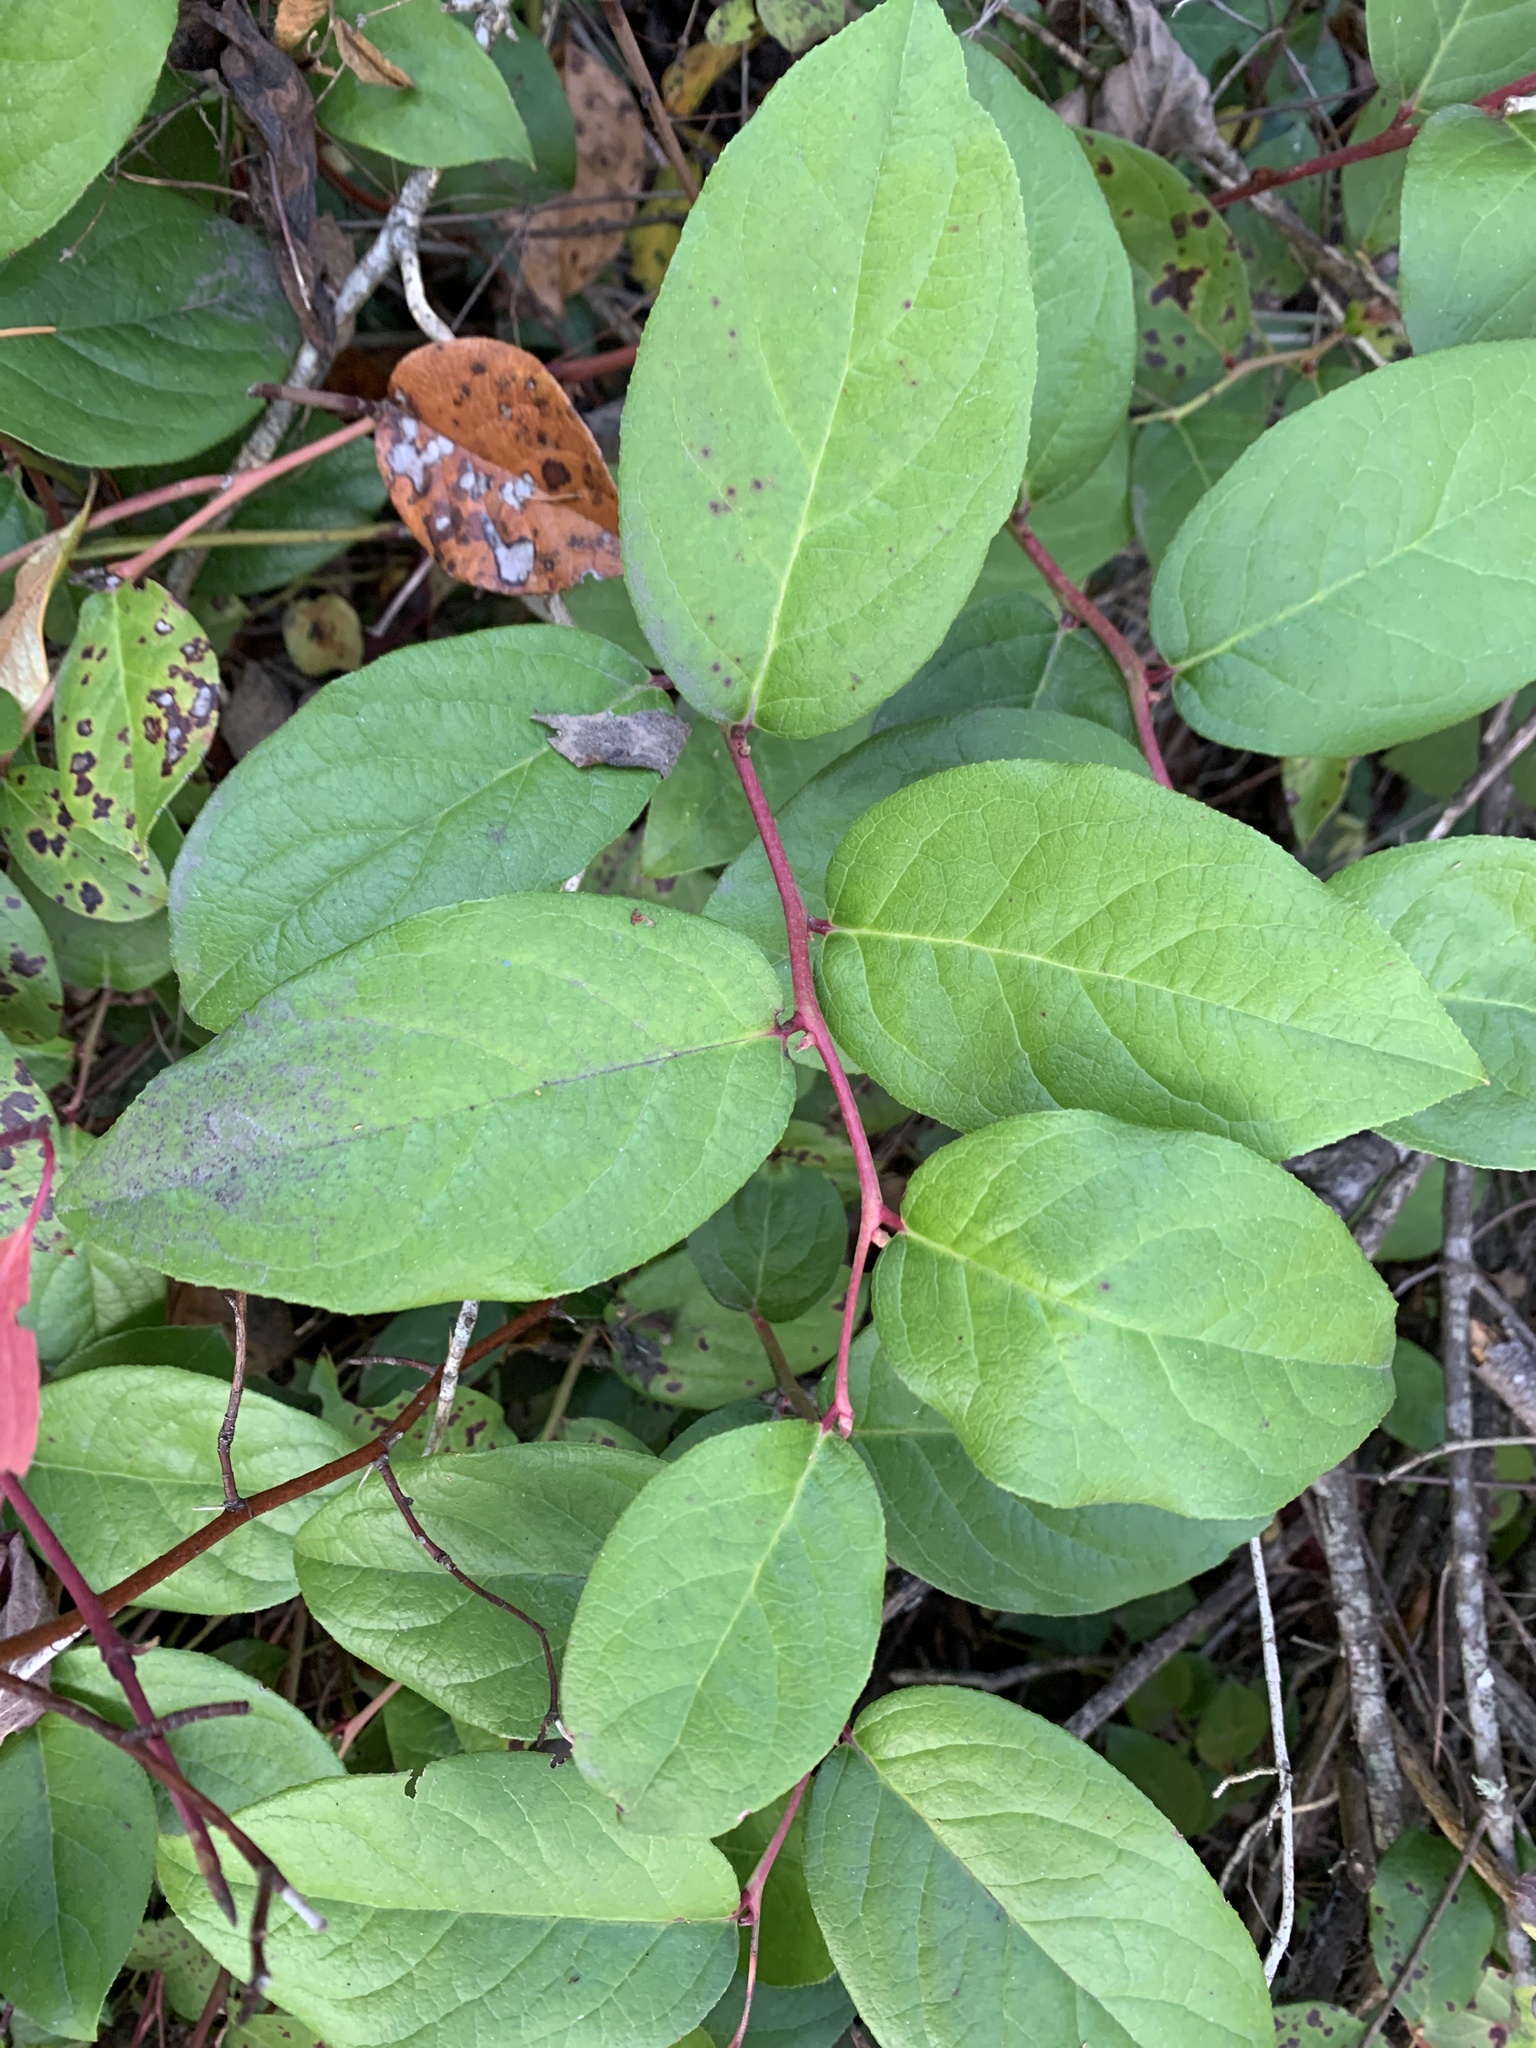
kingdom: Plantae
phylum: Tracheophyta
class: Magnoliopsida
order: Ericales
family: Ericaceae
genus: Gaultheria
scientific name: Gaultheria shallon
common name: Shallon
